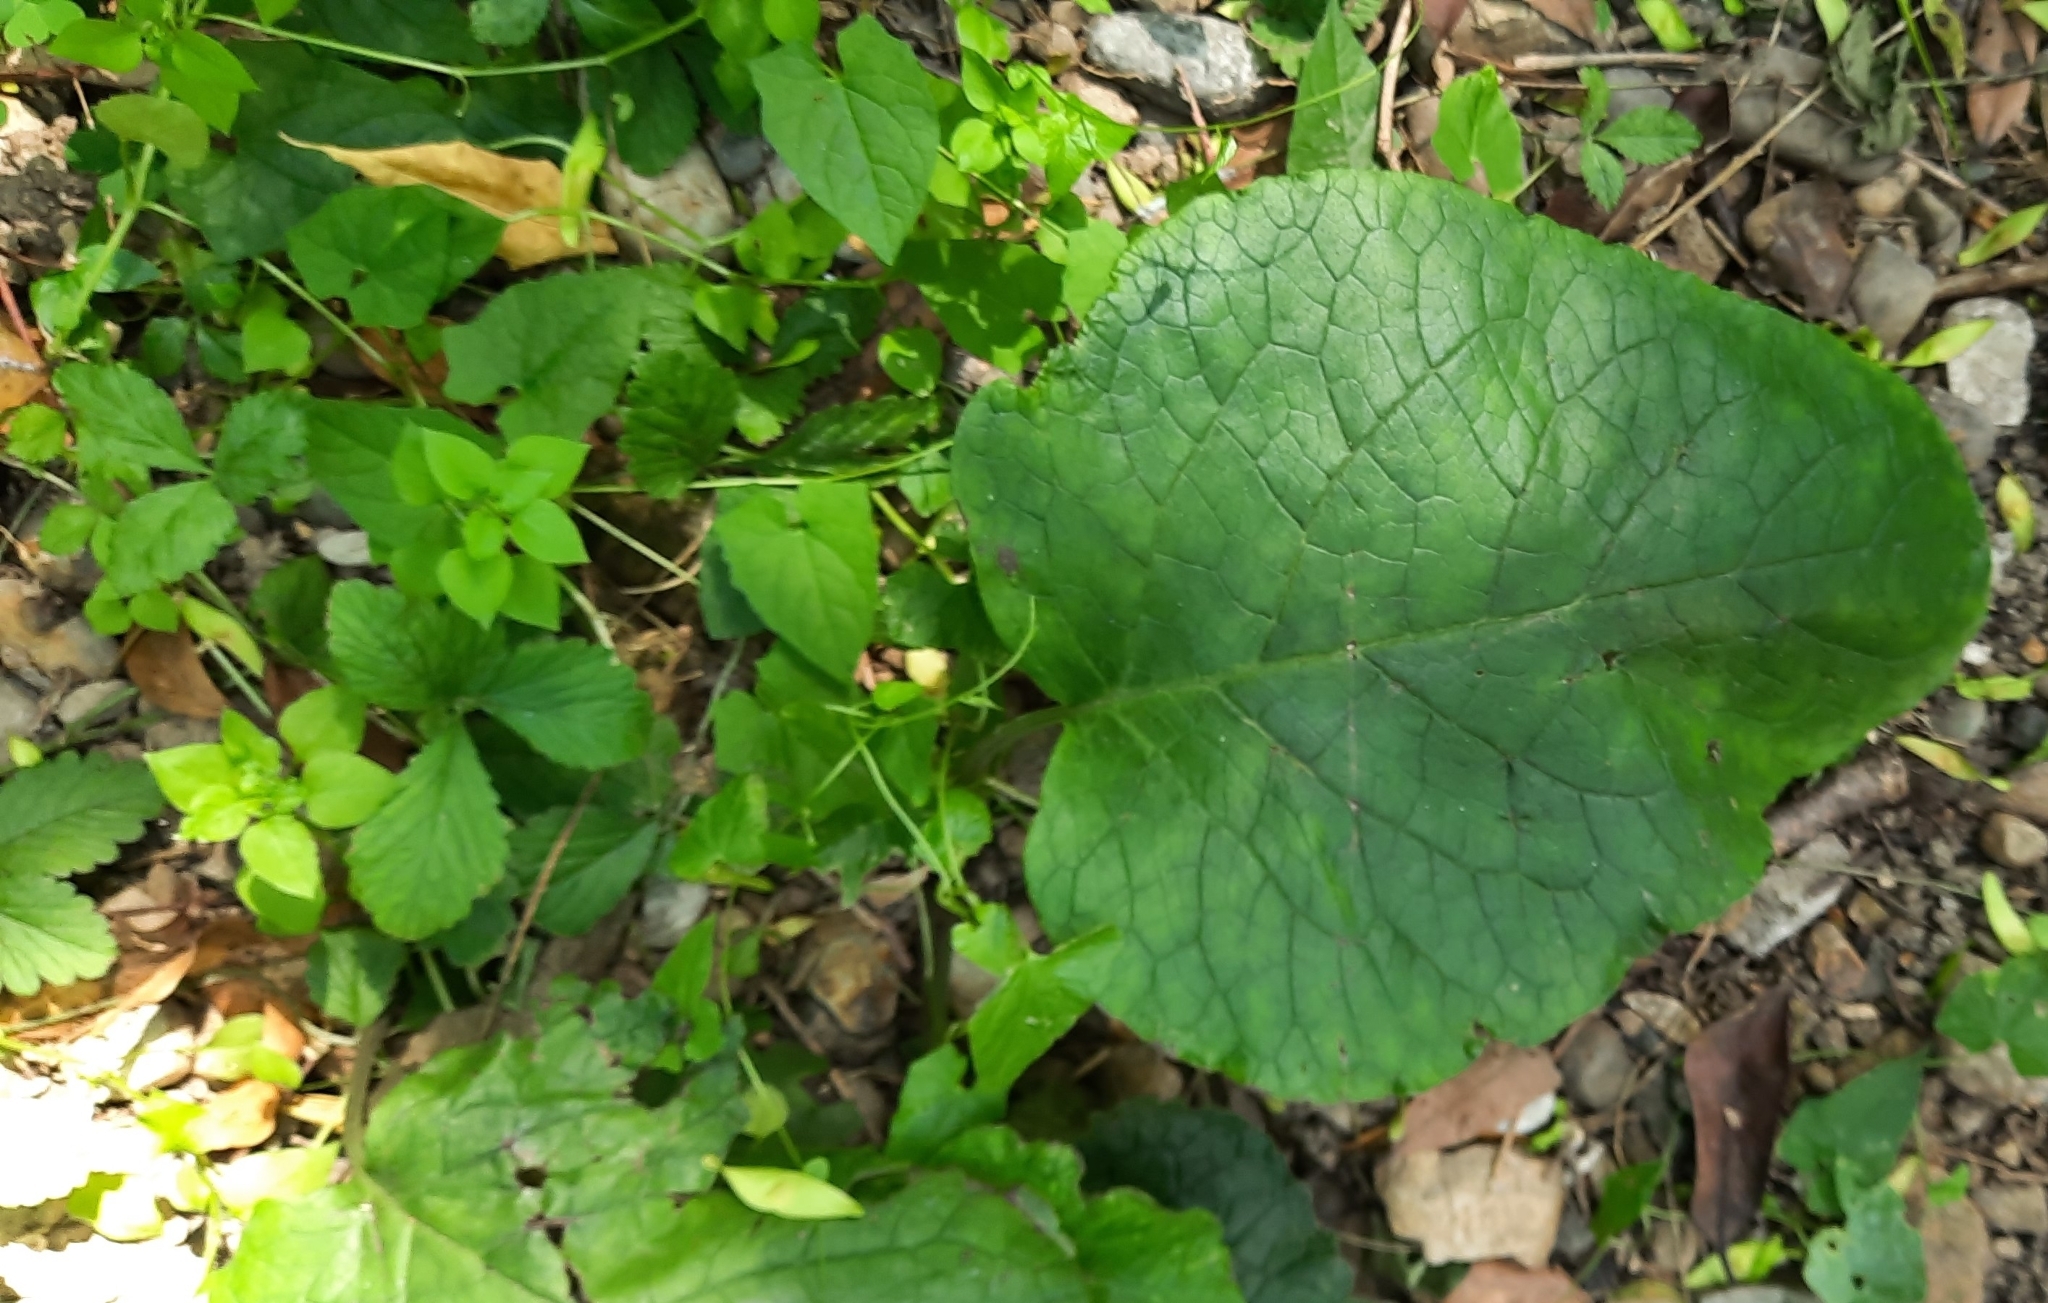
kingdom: Plantae
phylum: Tracheophyta
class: Magnoliopsida
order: Boraginales
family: Boraginaceae
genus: Trachystemon
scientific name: Trachystemon orientale
